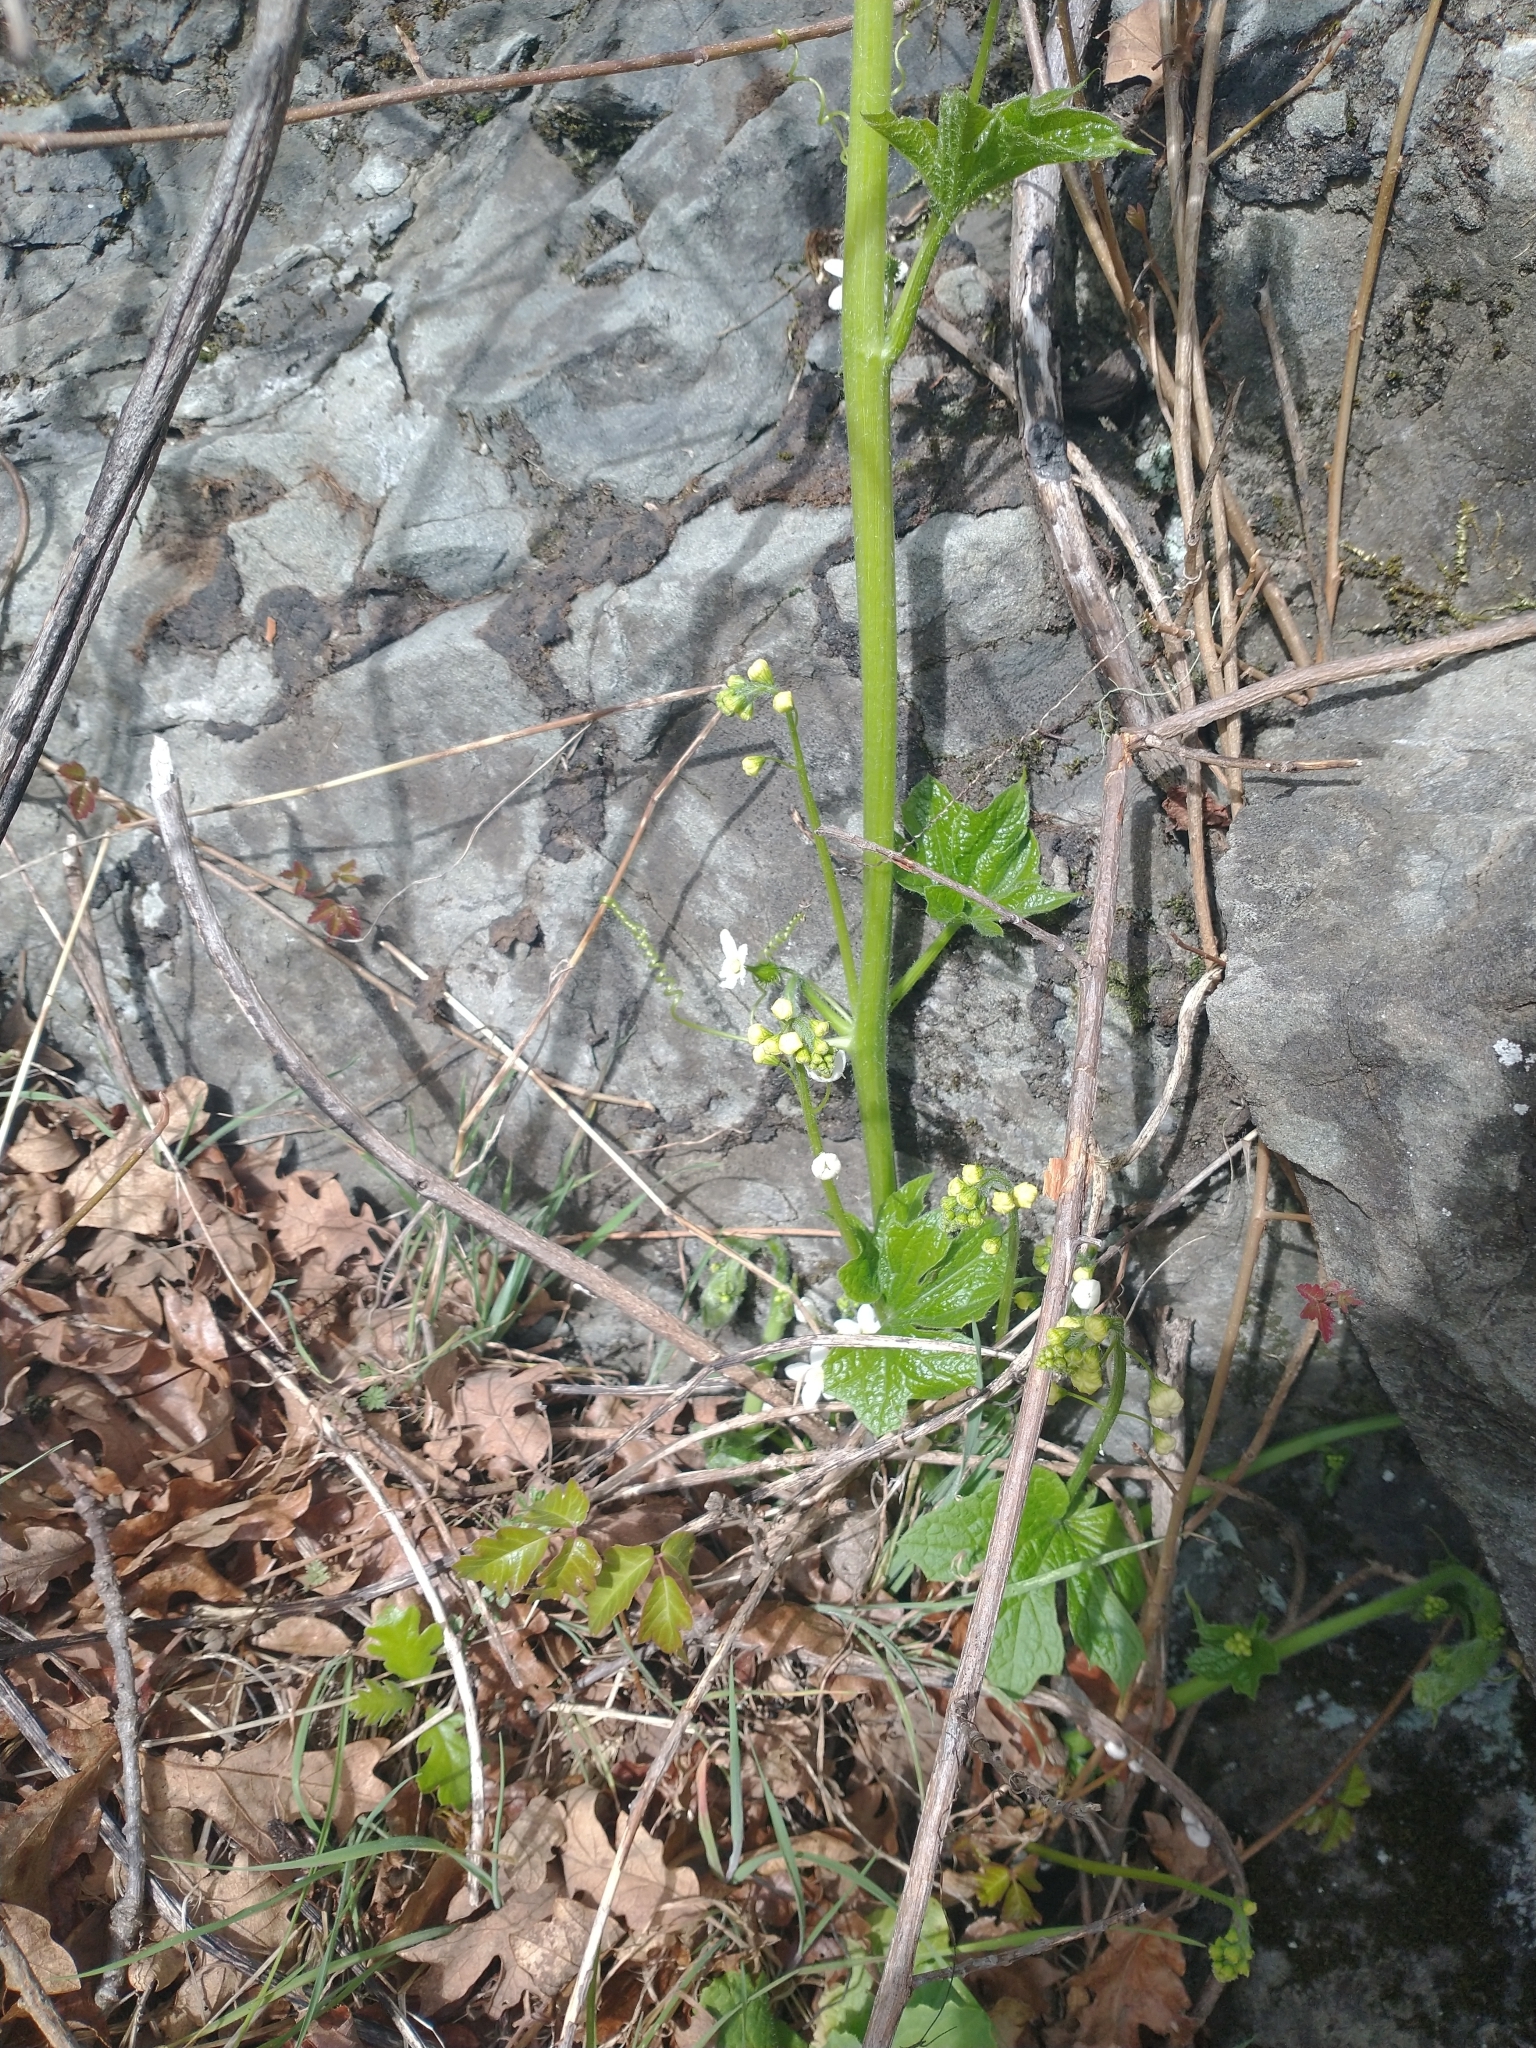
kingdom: Plantae
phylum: Tracheophyta
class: Magnoliopsida
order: Cucurbitales
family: Cucurbitaceae
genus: Marah
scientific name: Marah oregana
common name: Coastal manroot
